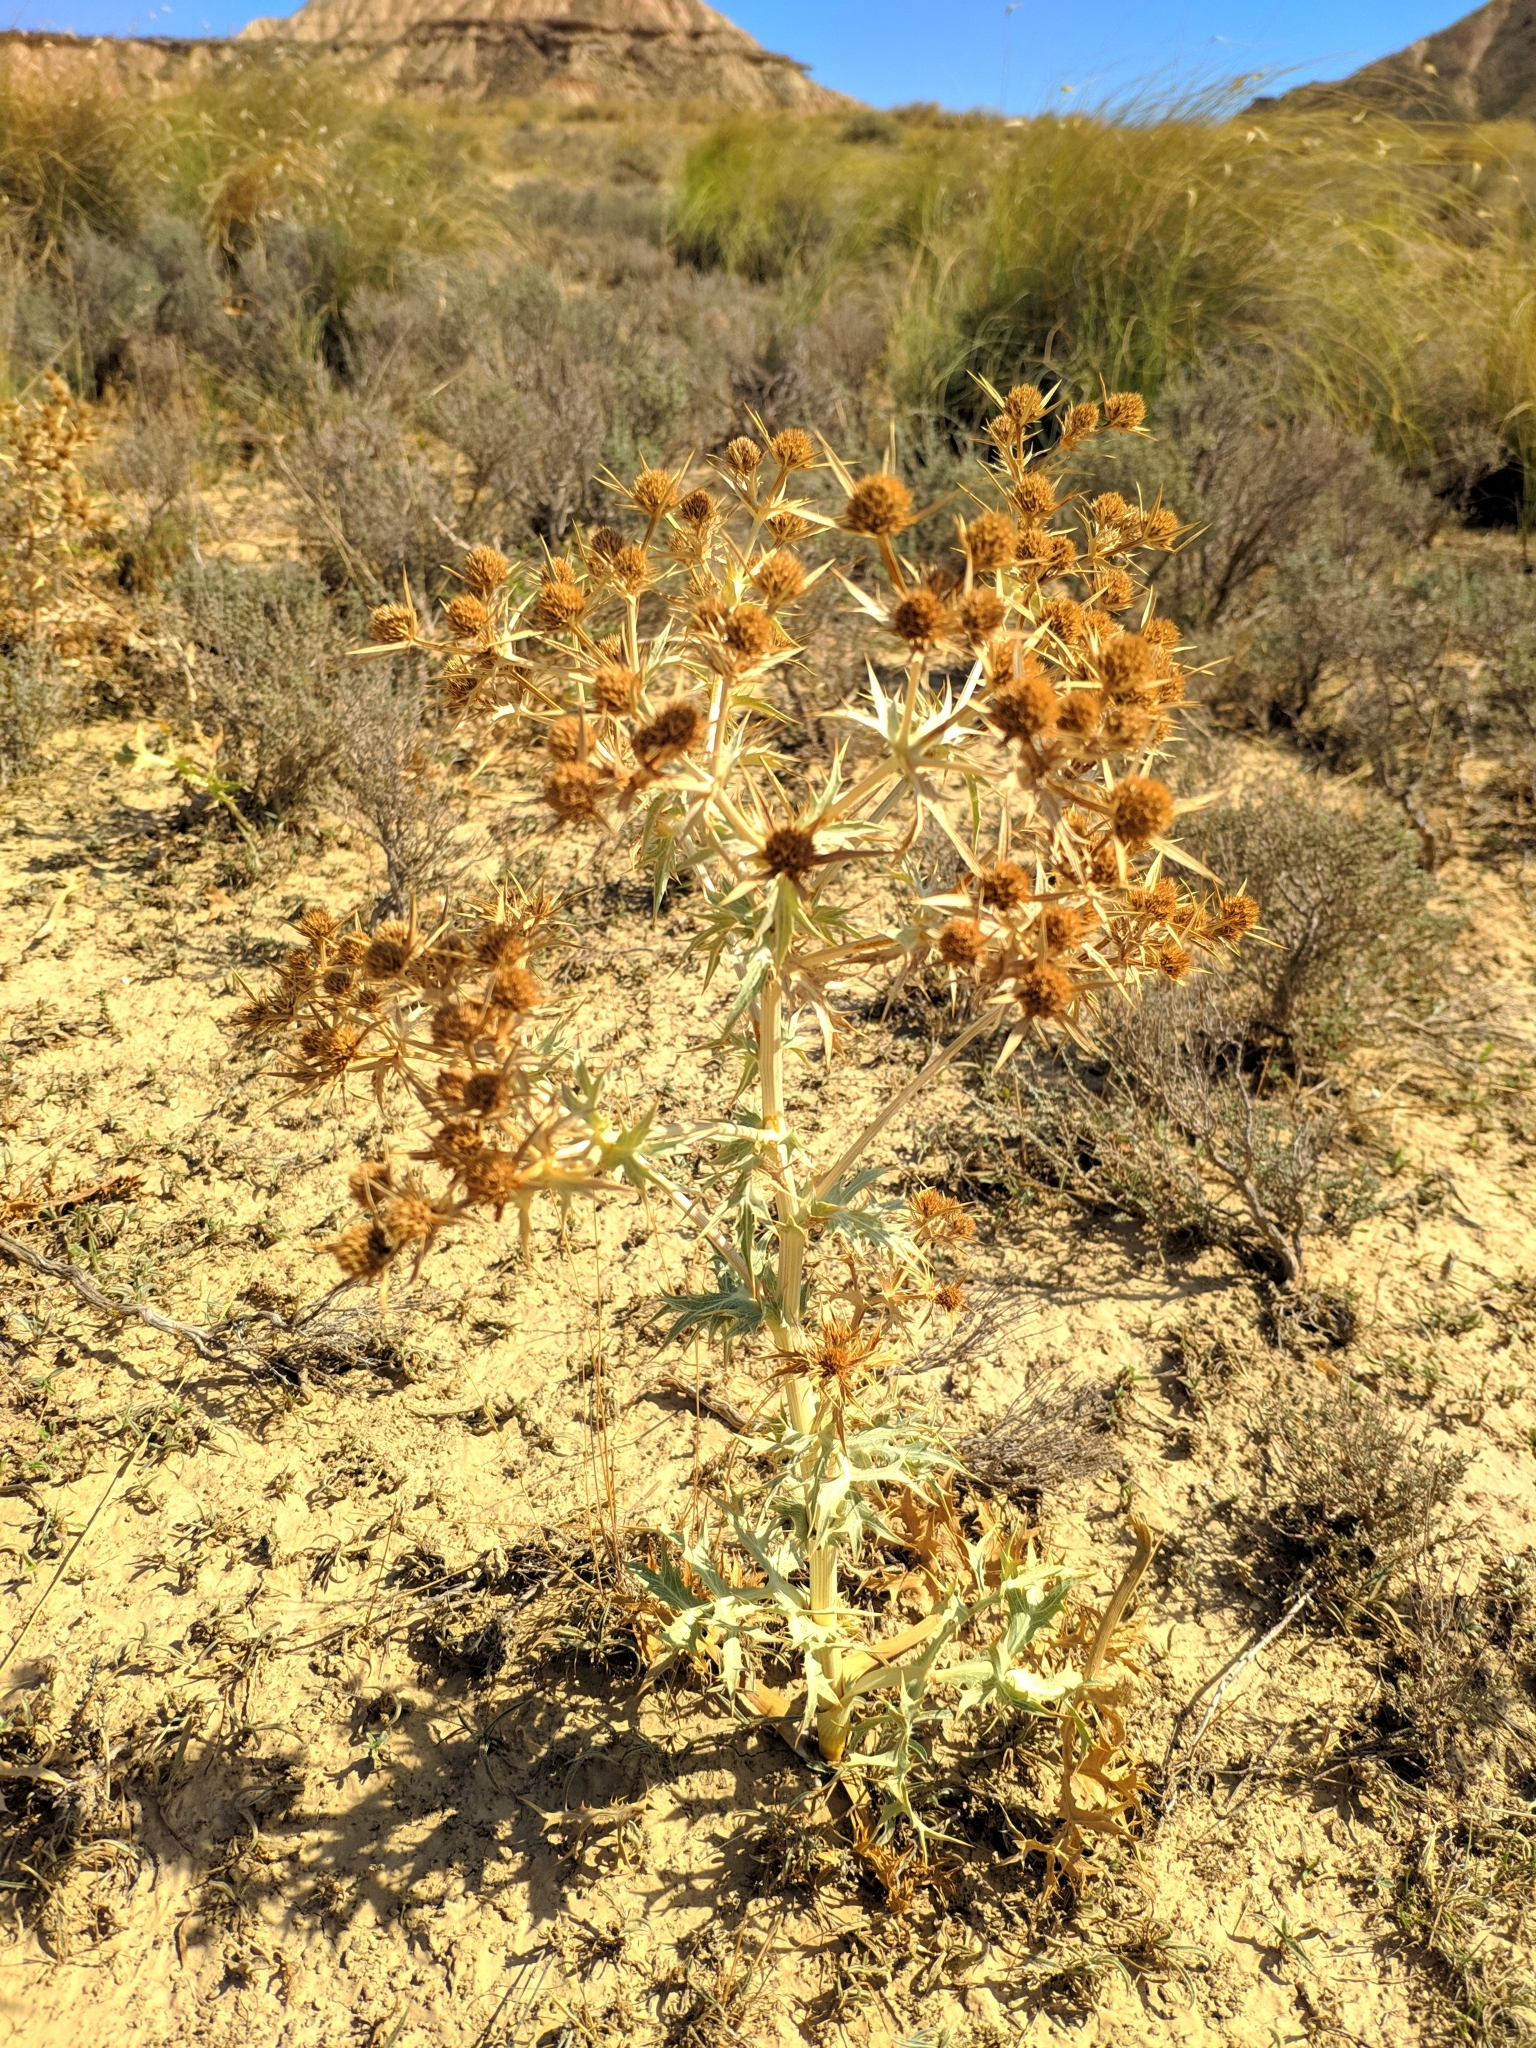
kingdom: Plantae
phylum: Tracheophyta
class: Magnoliopsida
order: Apiales
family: Apiaceae
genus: Eryngium
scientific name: Eryngium campestre
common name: Field eryngo
